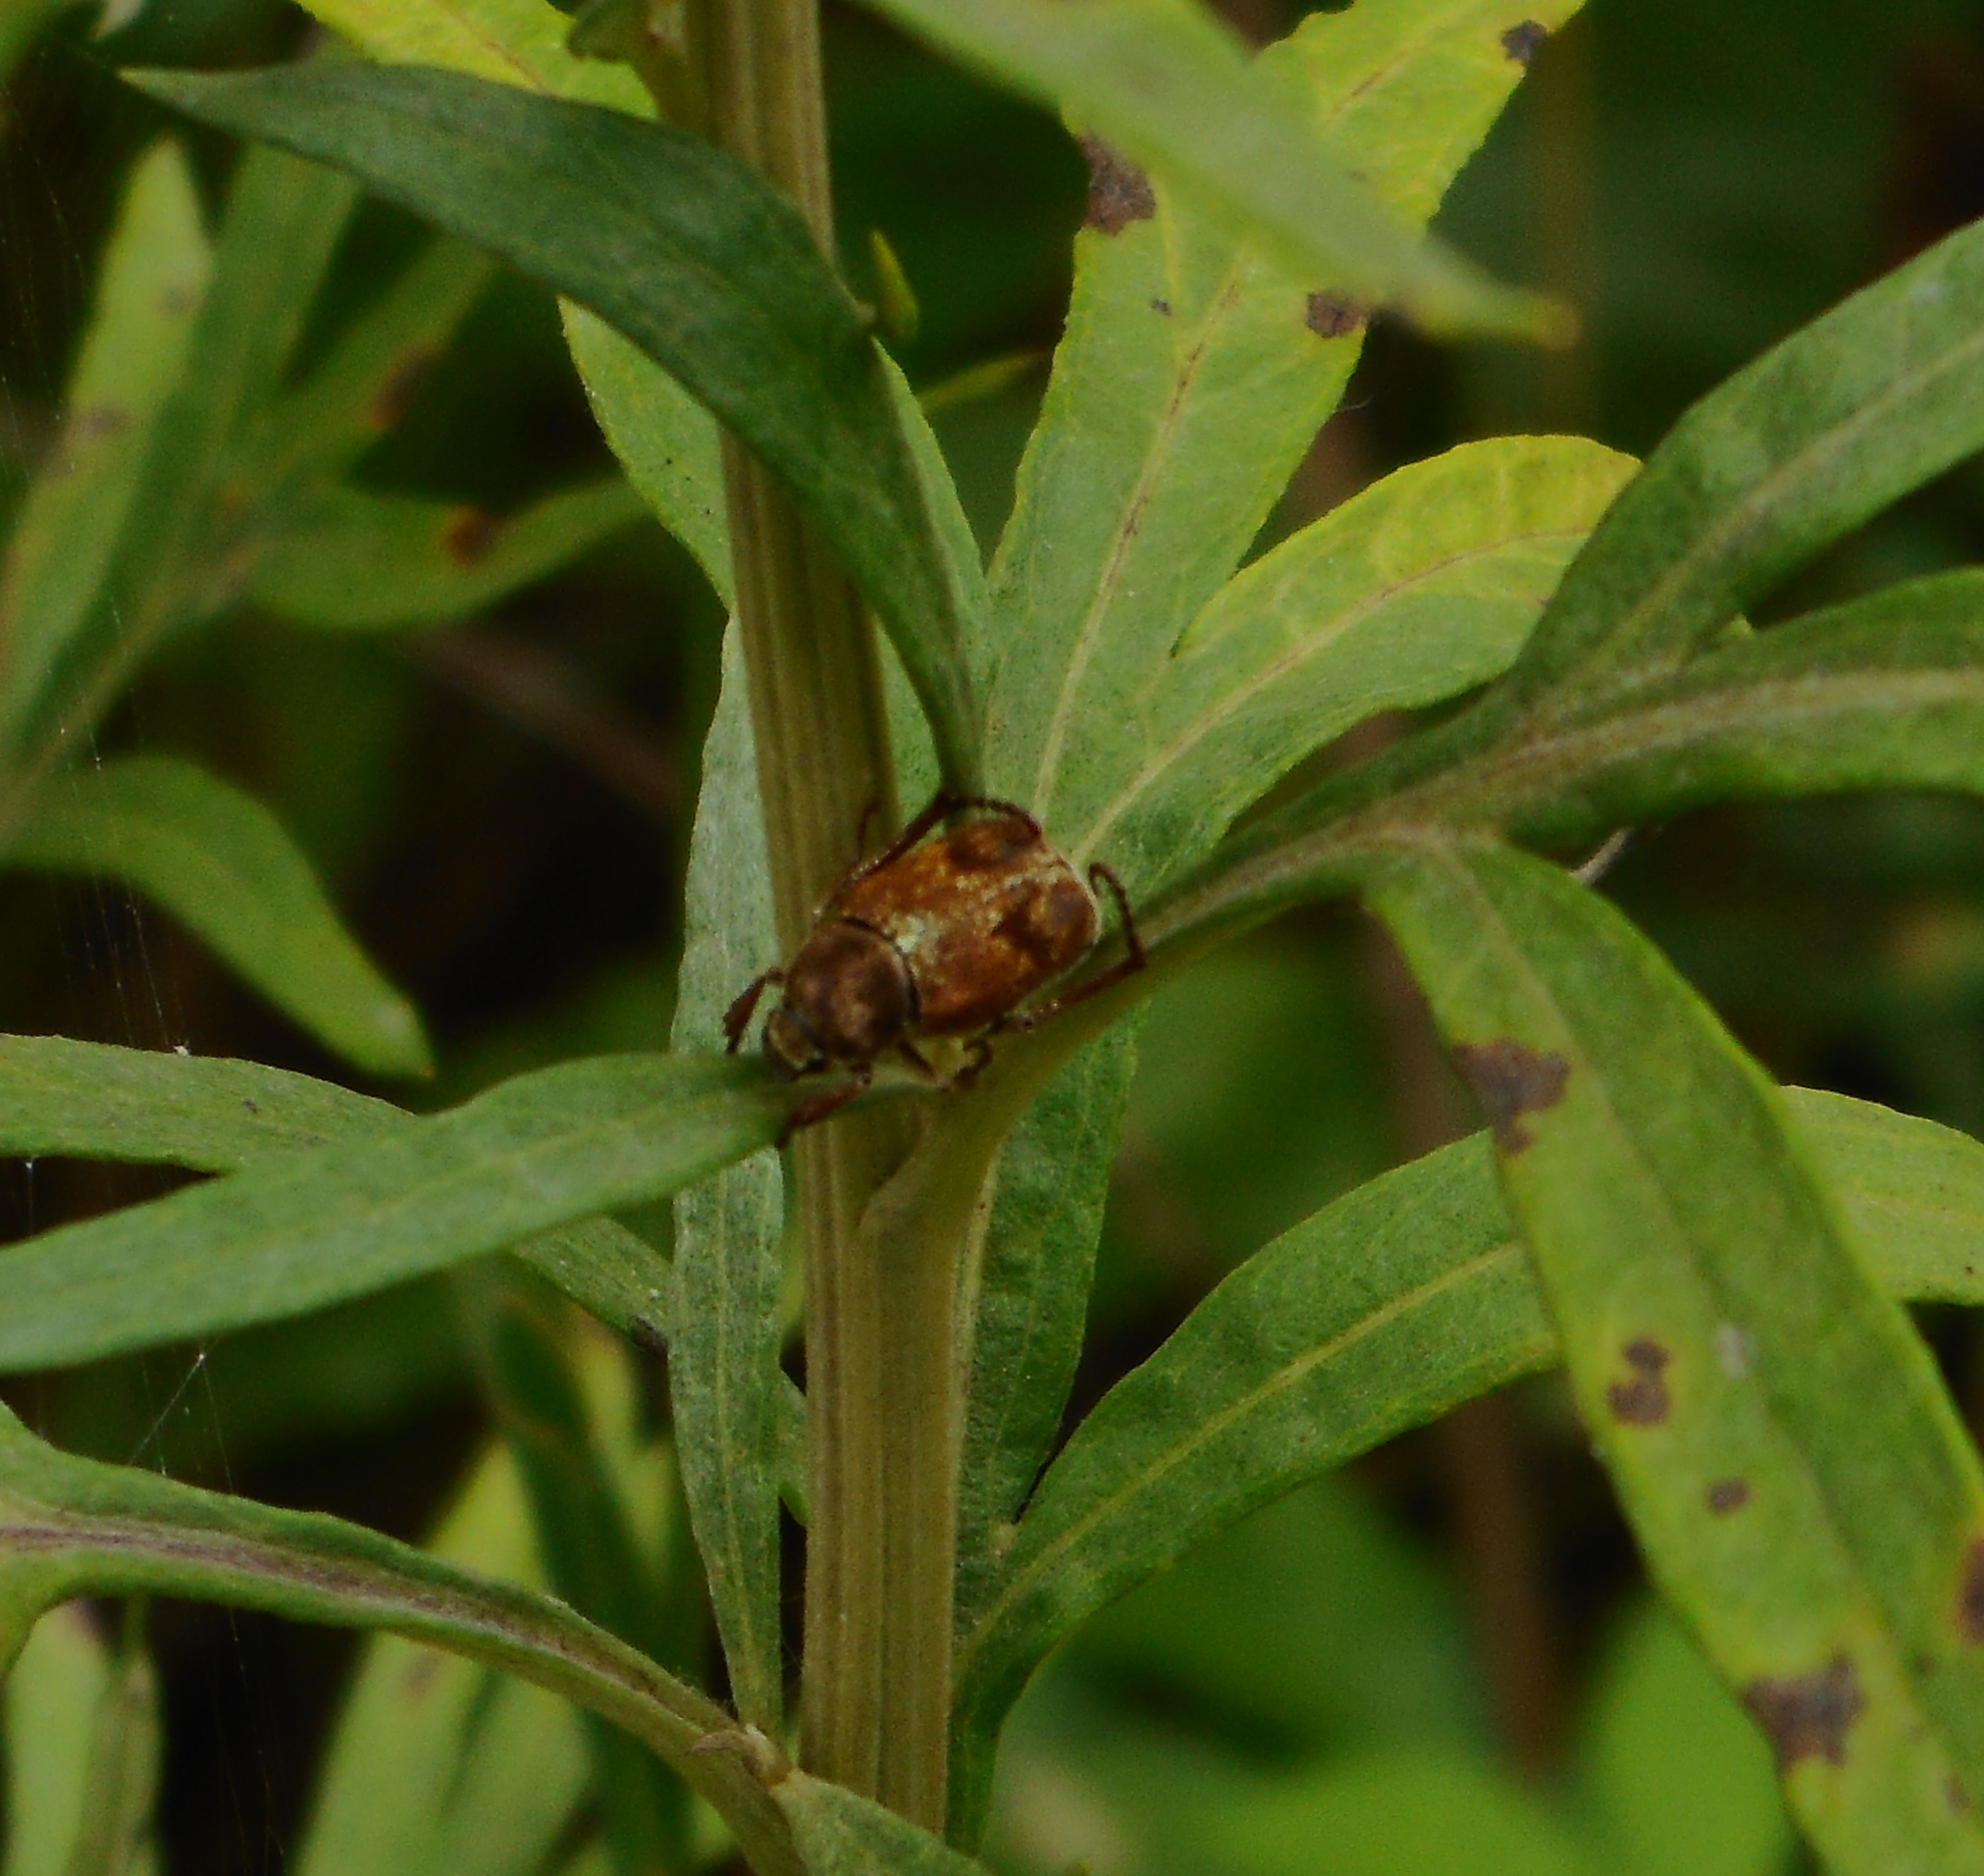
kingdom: Animalia
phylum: Arthropoda
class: Insecta
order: Coleoptera
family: Scarabaeidae
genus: Ectinohoplia
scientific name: Ectinohoplia rufipes
